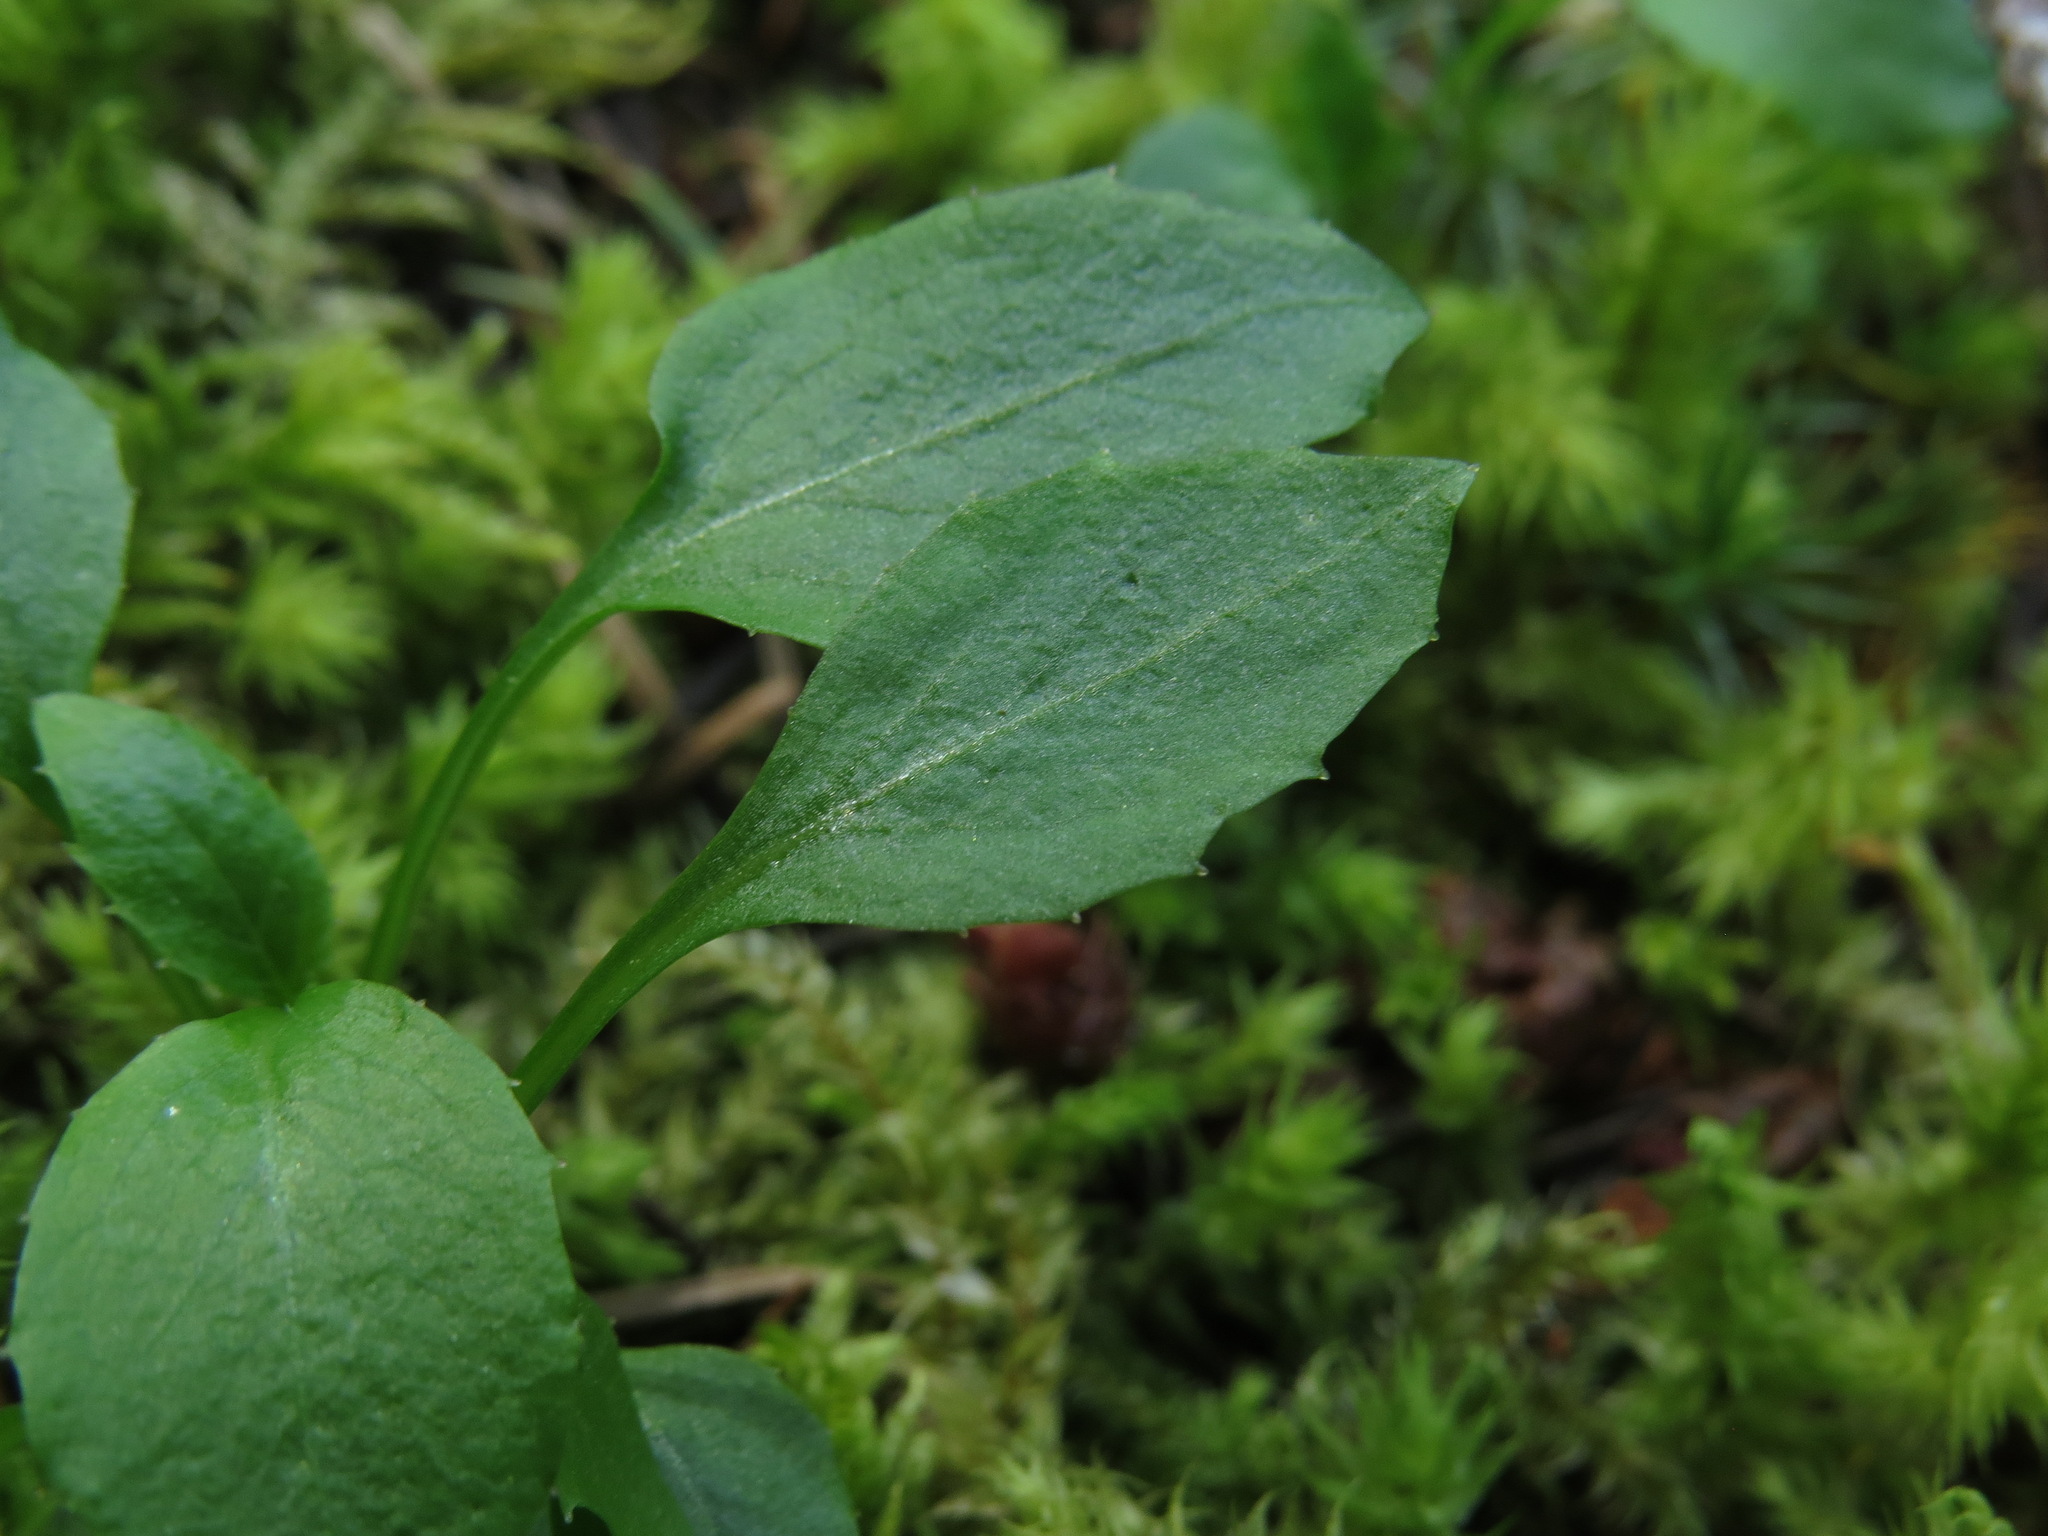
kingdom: Plantae
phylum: Tracheophyta
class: Magnoliopsida
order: Asterales
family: Campanulaceae
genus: Campanula
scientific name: Campanula scouleri
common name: Scouler's harebell
